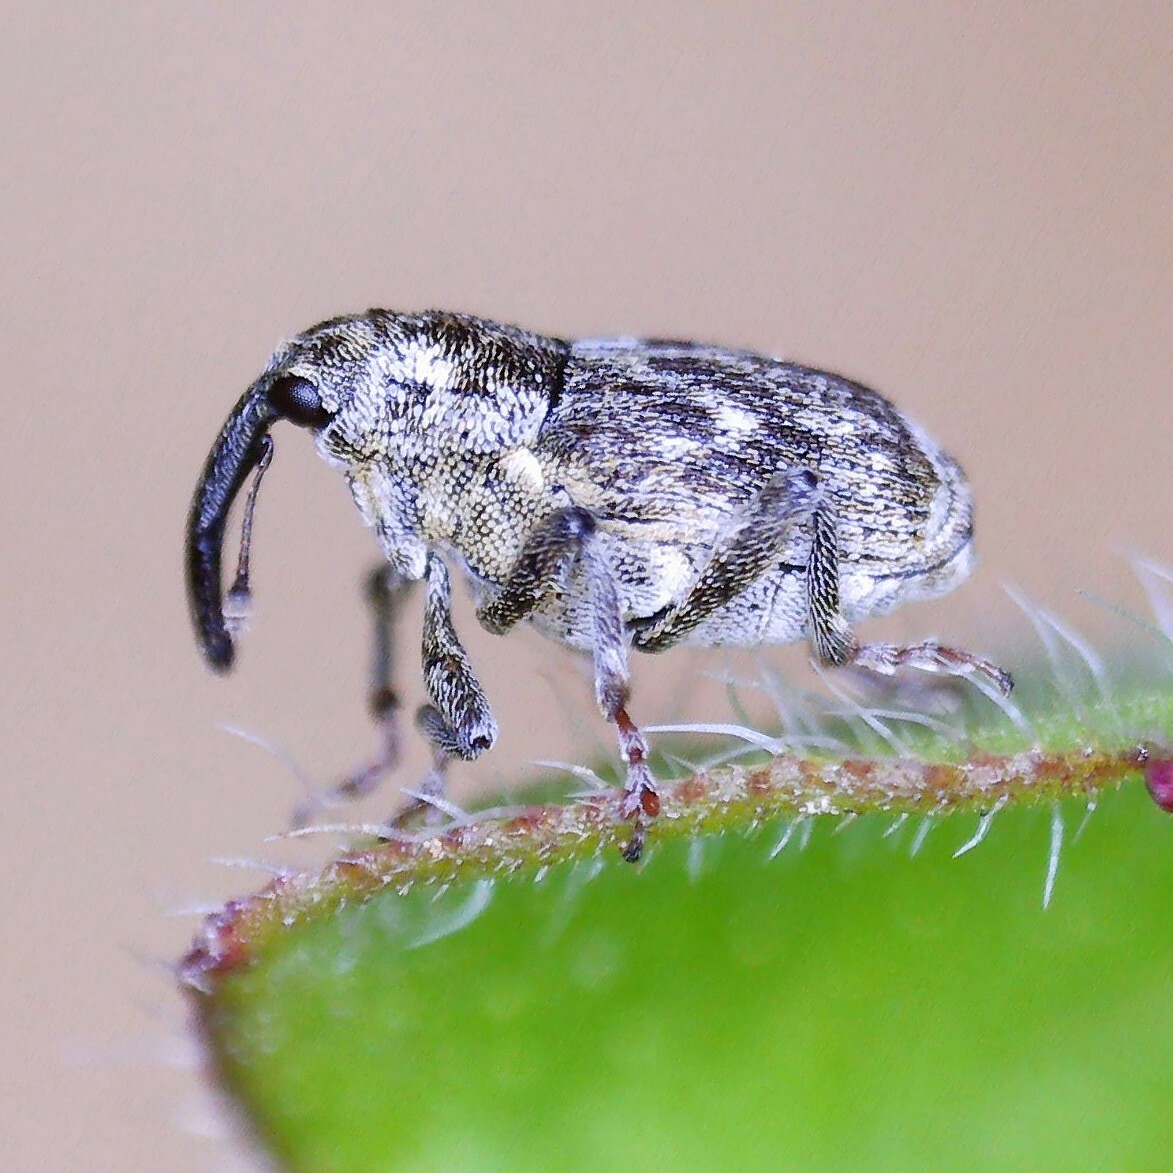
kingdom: Animalia
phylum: Arthropoda
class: Insecta
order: Coleoptera
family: Curculionidae
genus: Datonychus
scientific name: Datonychus melanostictus
